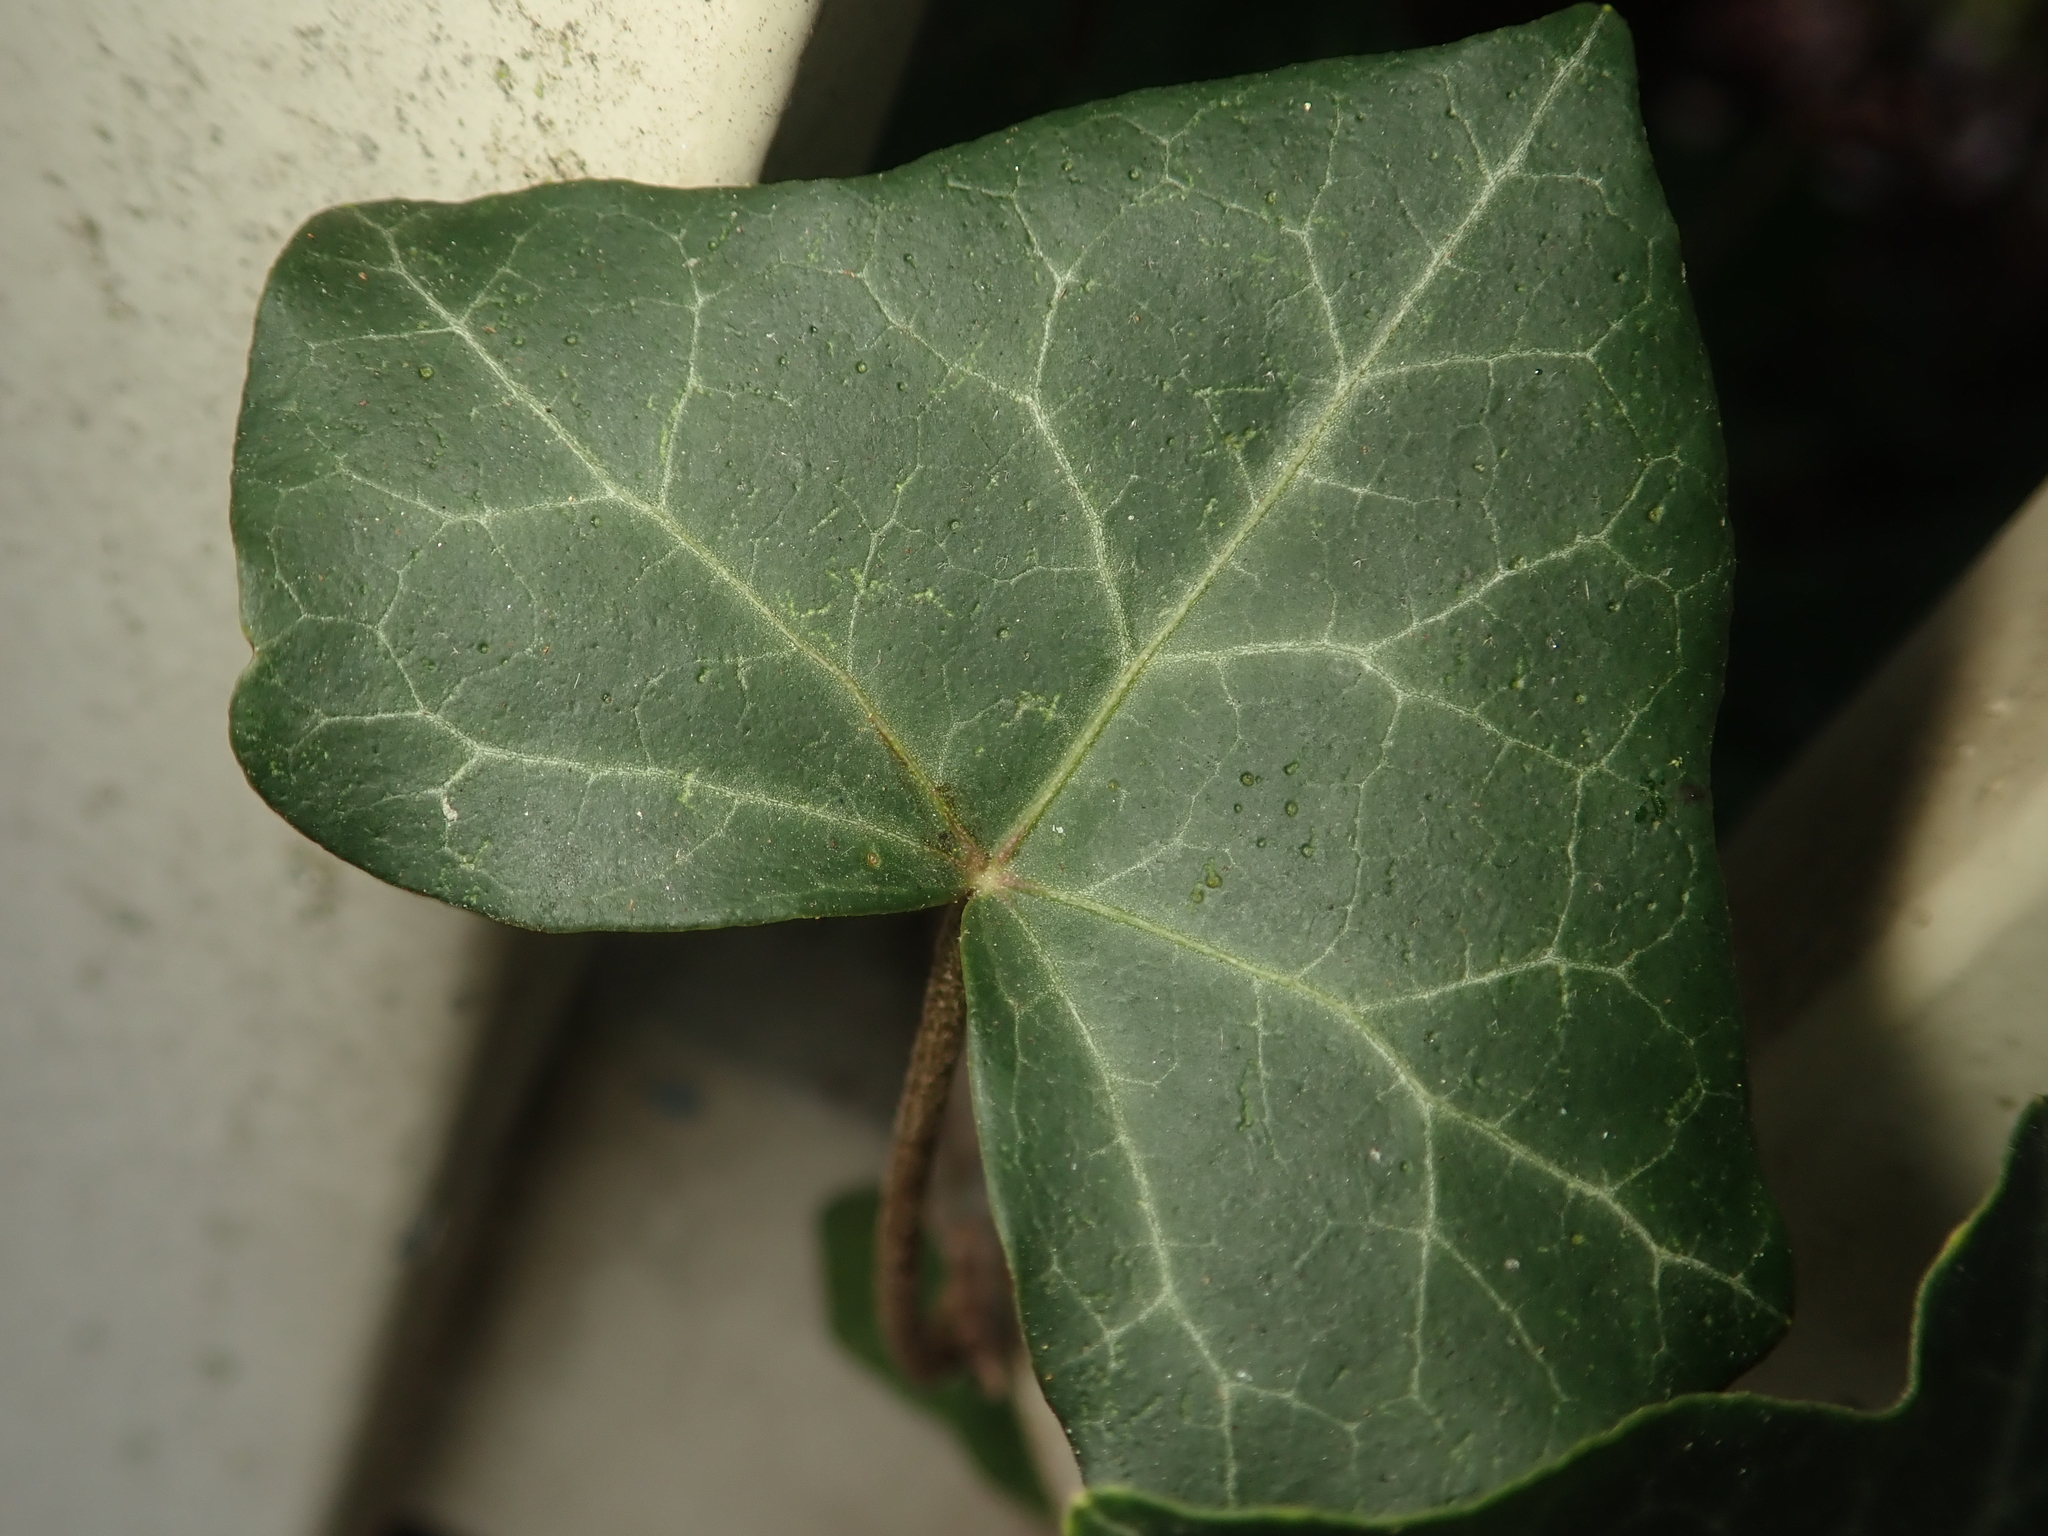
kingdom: Plantae
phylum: Tracheophyta
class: Magnoliopsida
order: Apiales
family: Araliaceae
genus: Hedera
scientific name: Hedera helix
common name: Ivy
